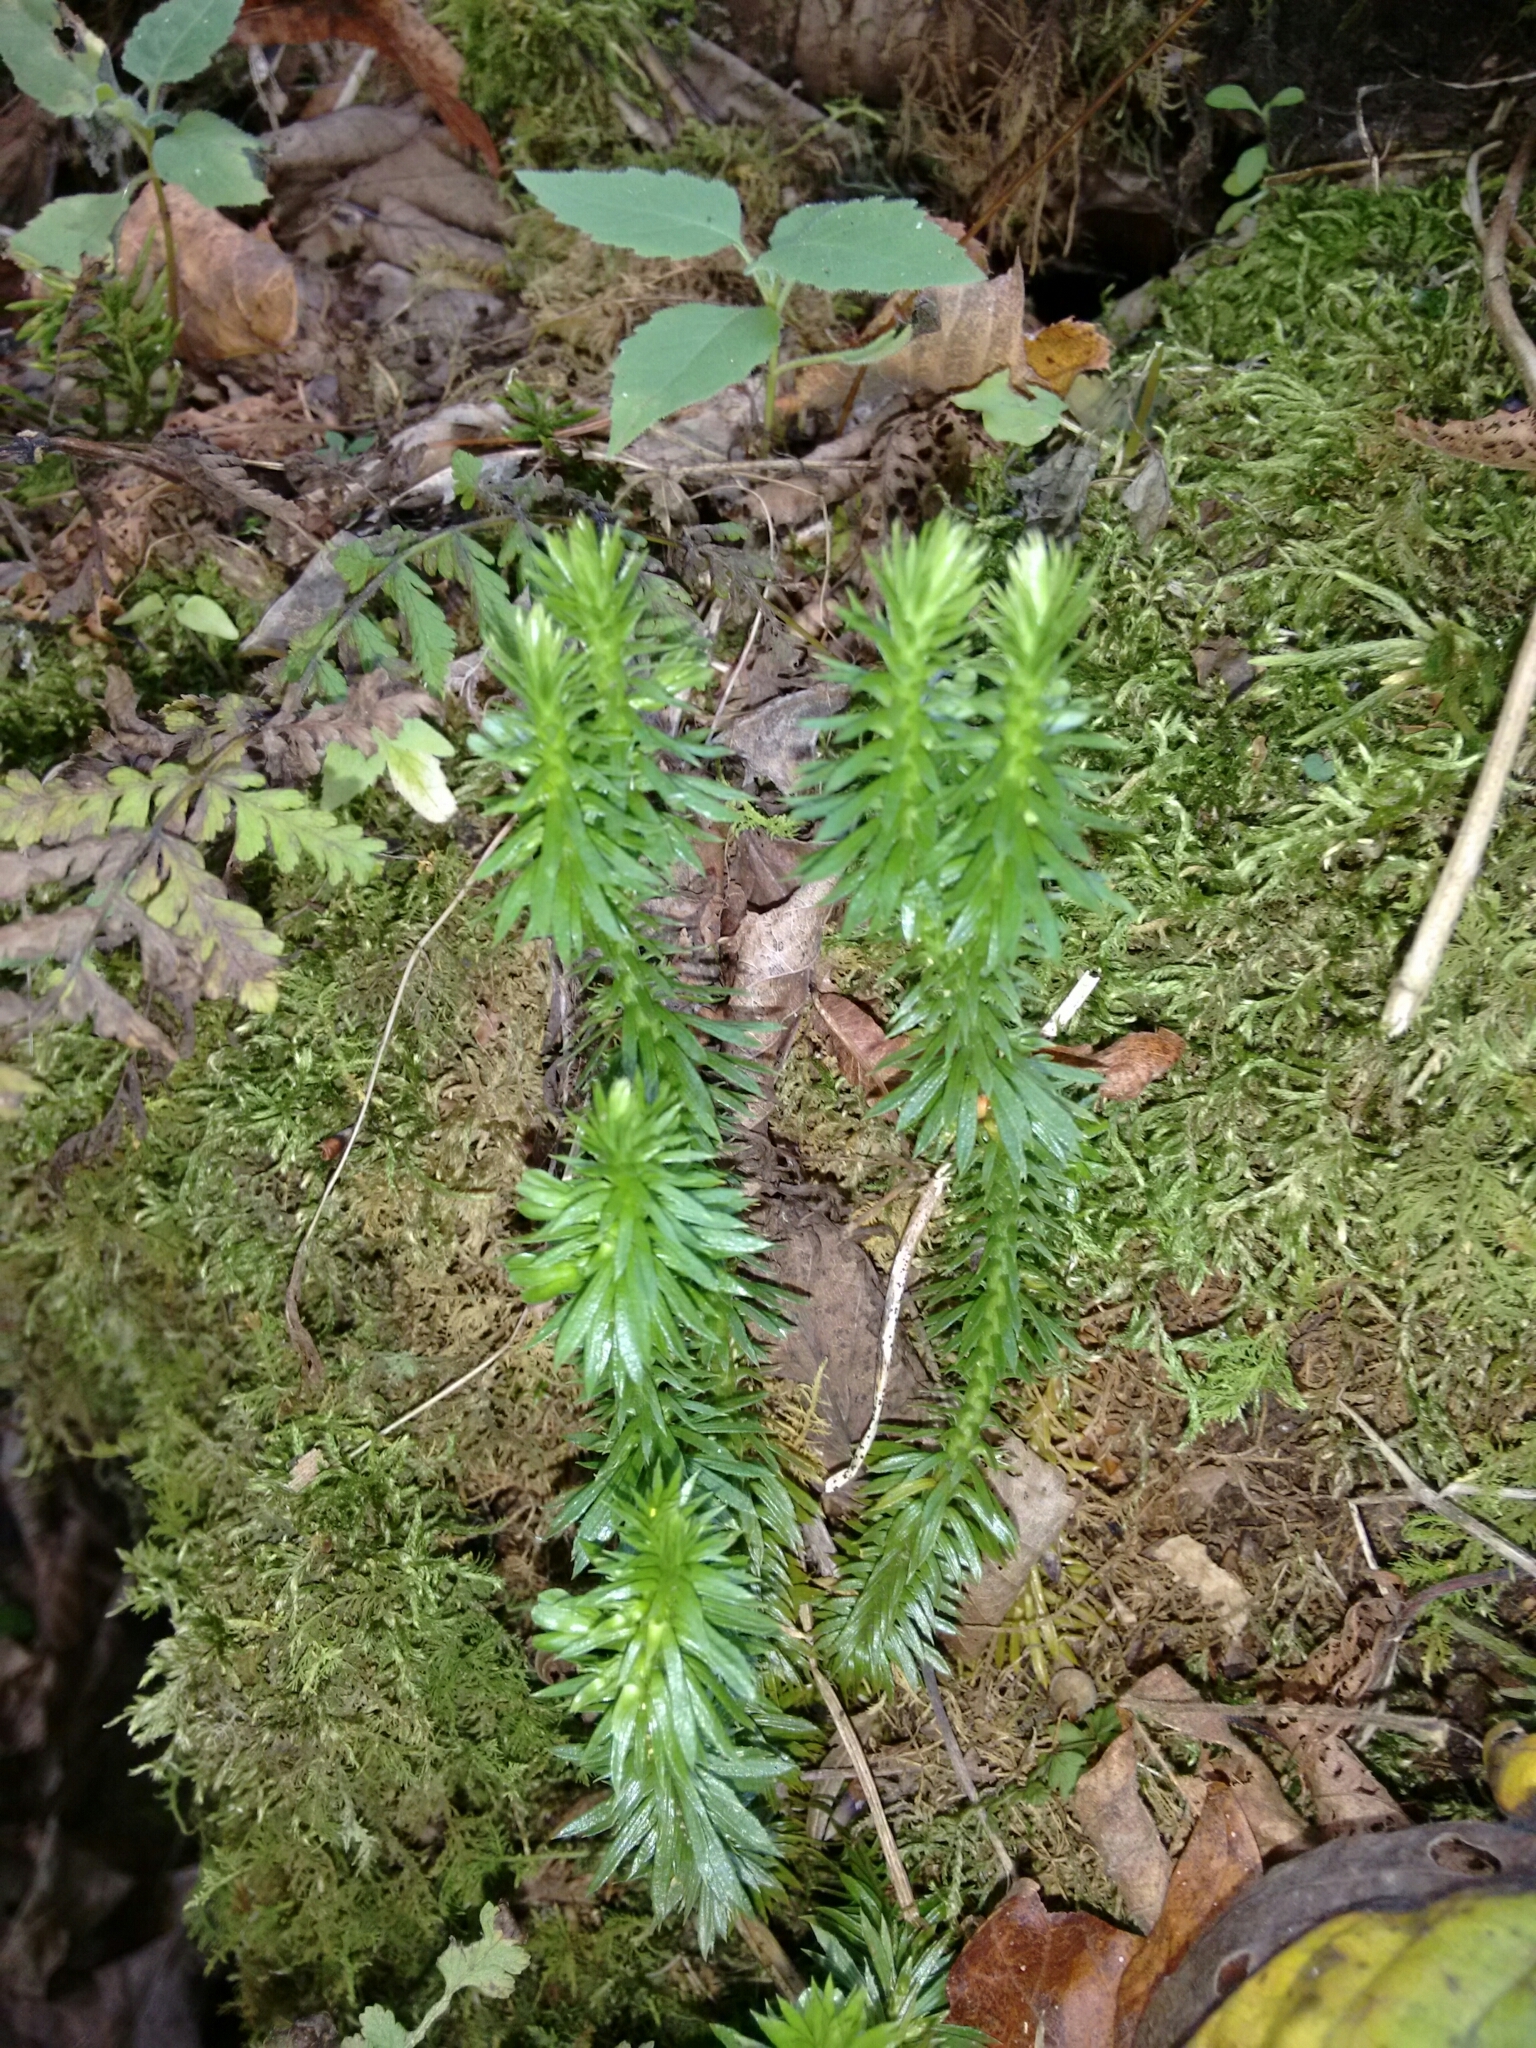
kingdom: Plantae
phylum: Tracheophyta
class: Lycopodiopsida
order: Lycopodiales
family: Lycopodiaceae
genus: Huperzia
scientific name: Huperzia lucidula
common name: Shining clubmoss
